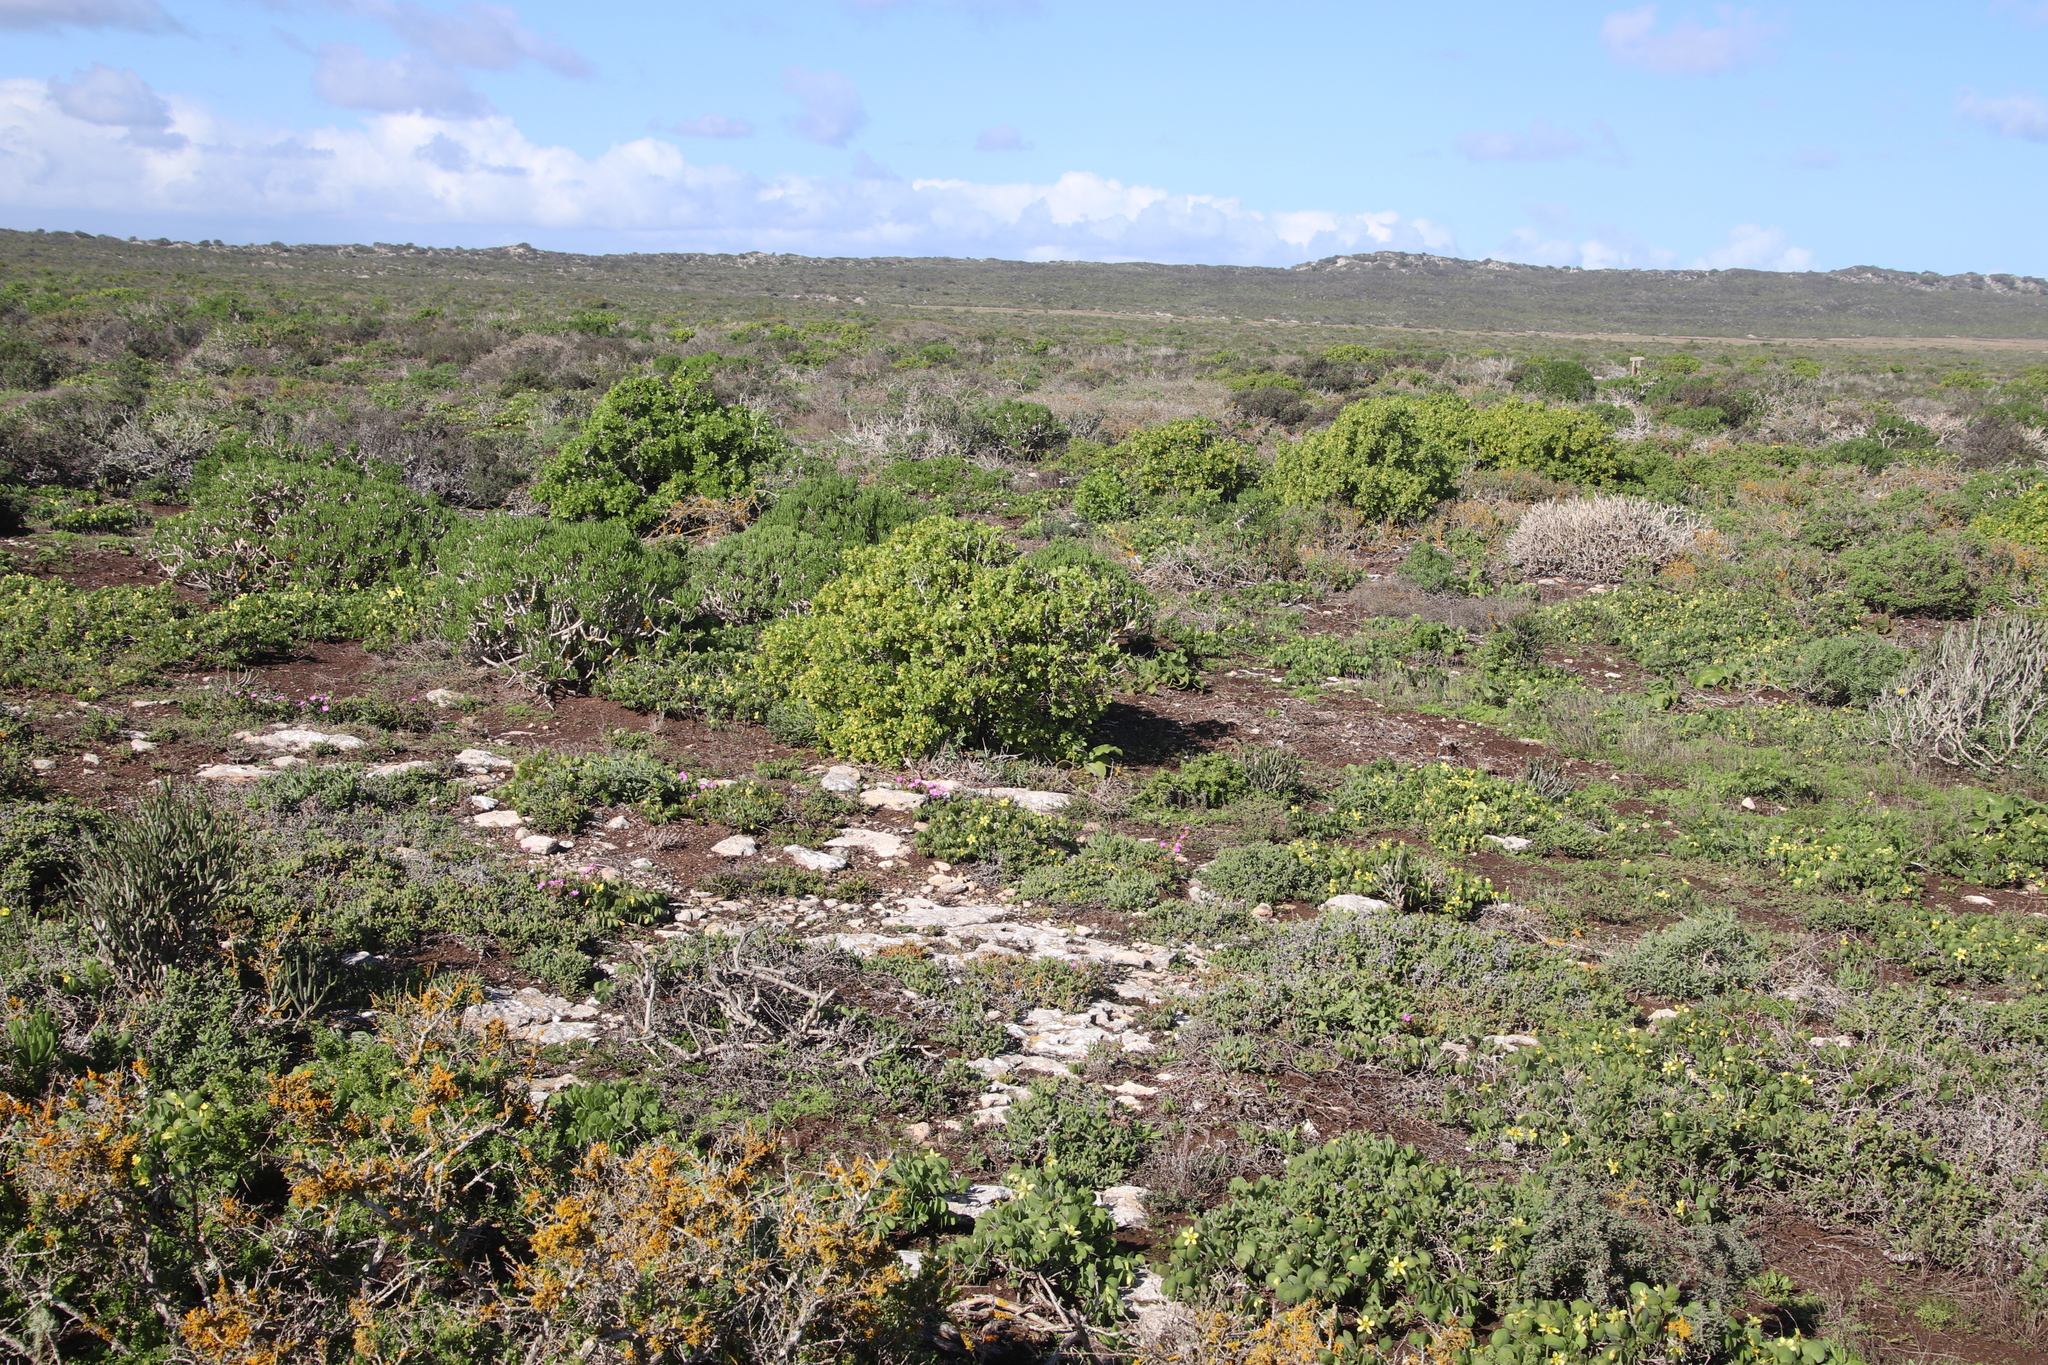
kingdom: Plantae
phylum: Tracheophyta
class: Magnoliopsida
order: Zygophyllales
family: Zygophyllaceae
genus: Roepera
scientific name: Roepera morgsana
